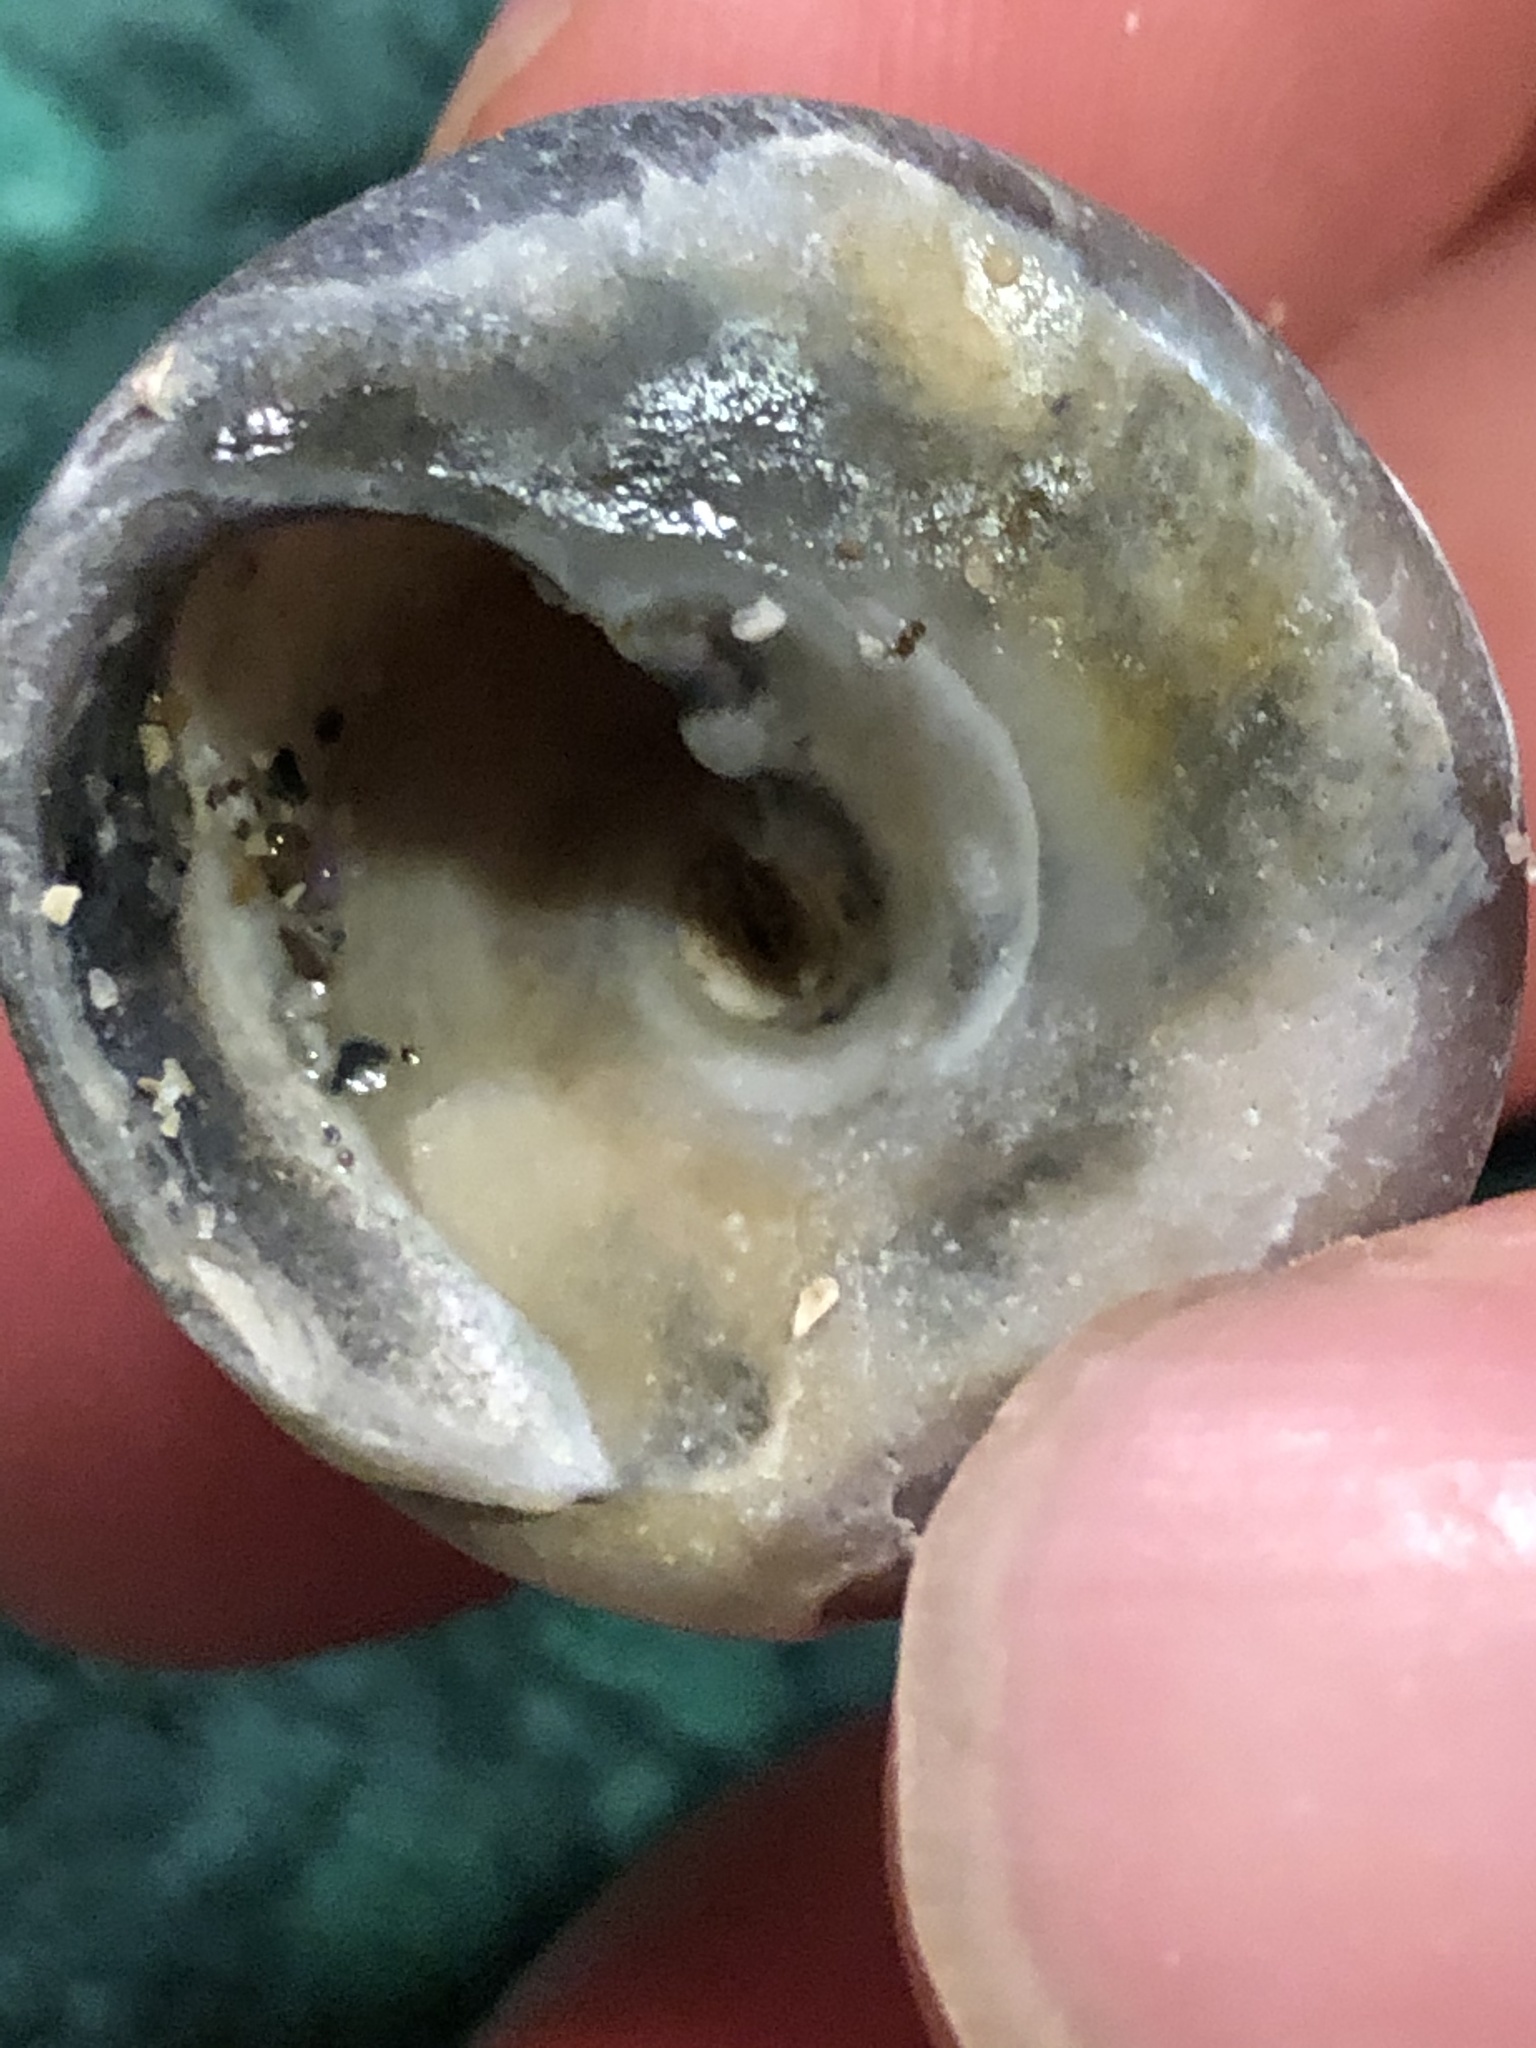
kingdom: Animalia
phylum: Mollusca
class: Gastropoda
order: Trochida
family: Tegulidae
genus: Tegula
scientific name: Tegula montereyi
